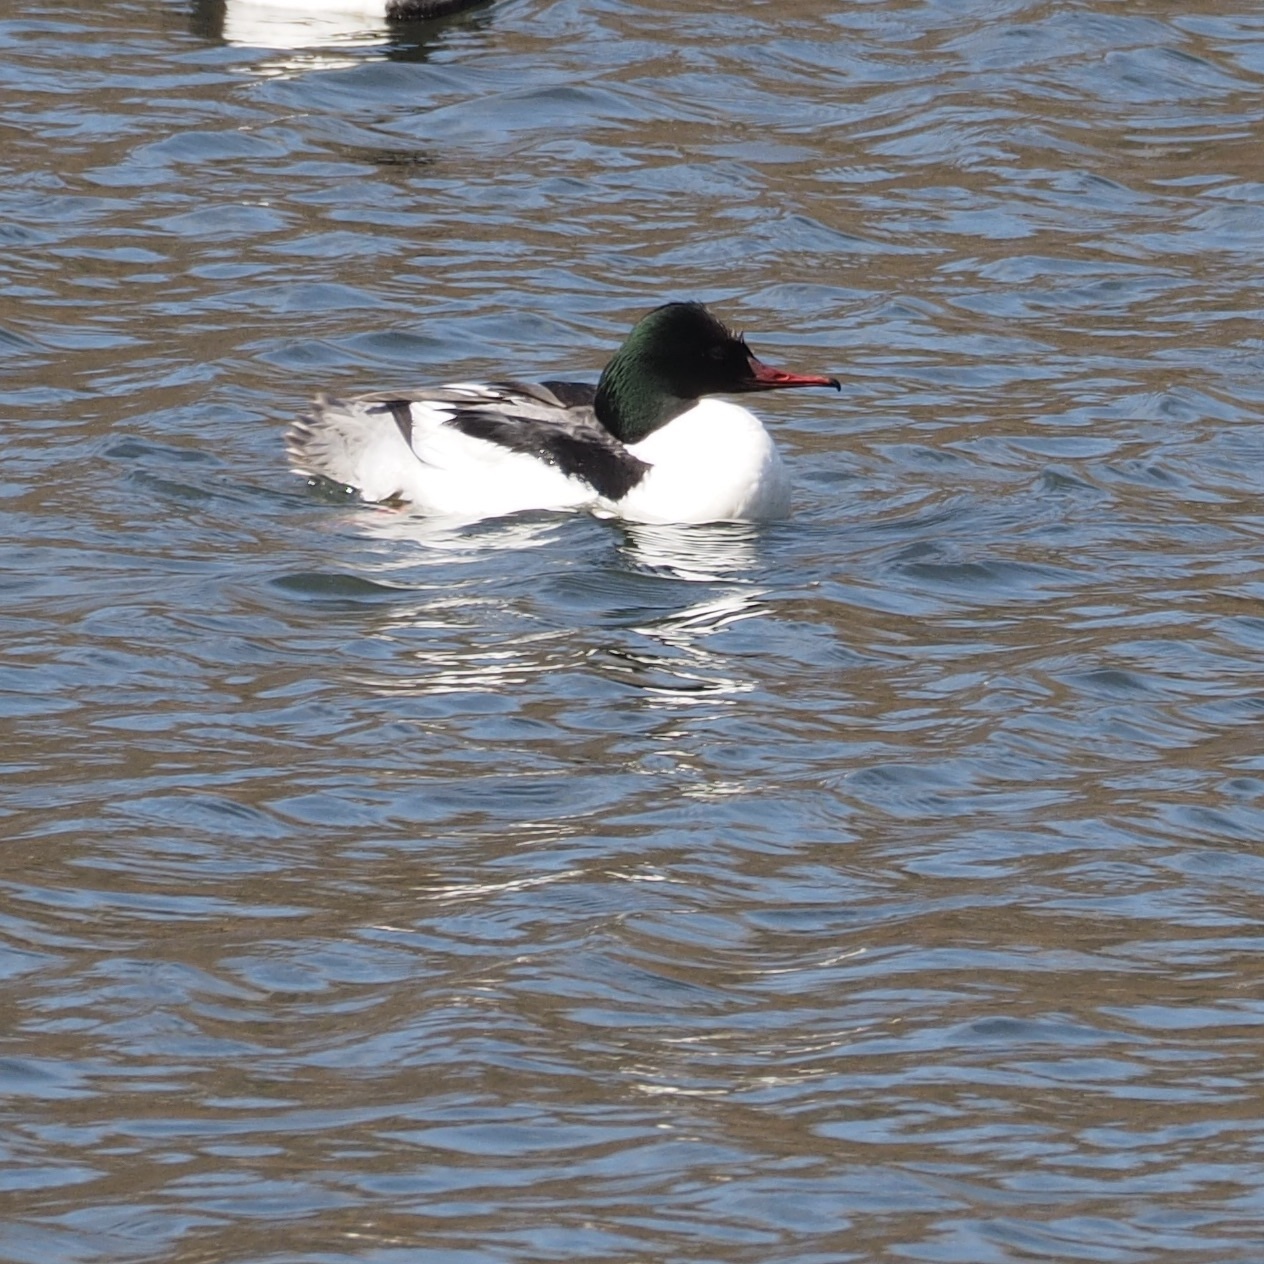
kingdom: Animalia
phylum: Chordata
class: Aves
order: Anseriformes
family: Anatidae
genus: Mergus
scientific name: Mergus merganser
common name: Common merganser
